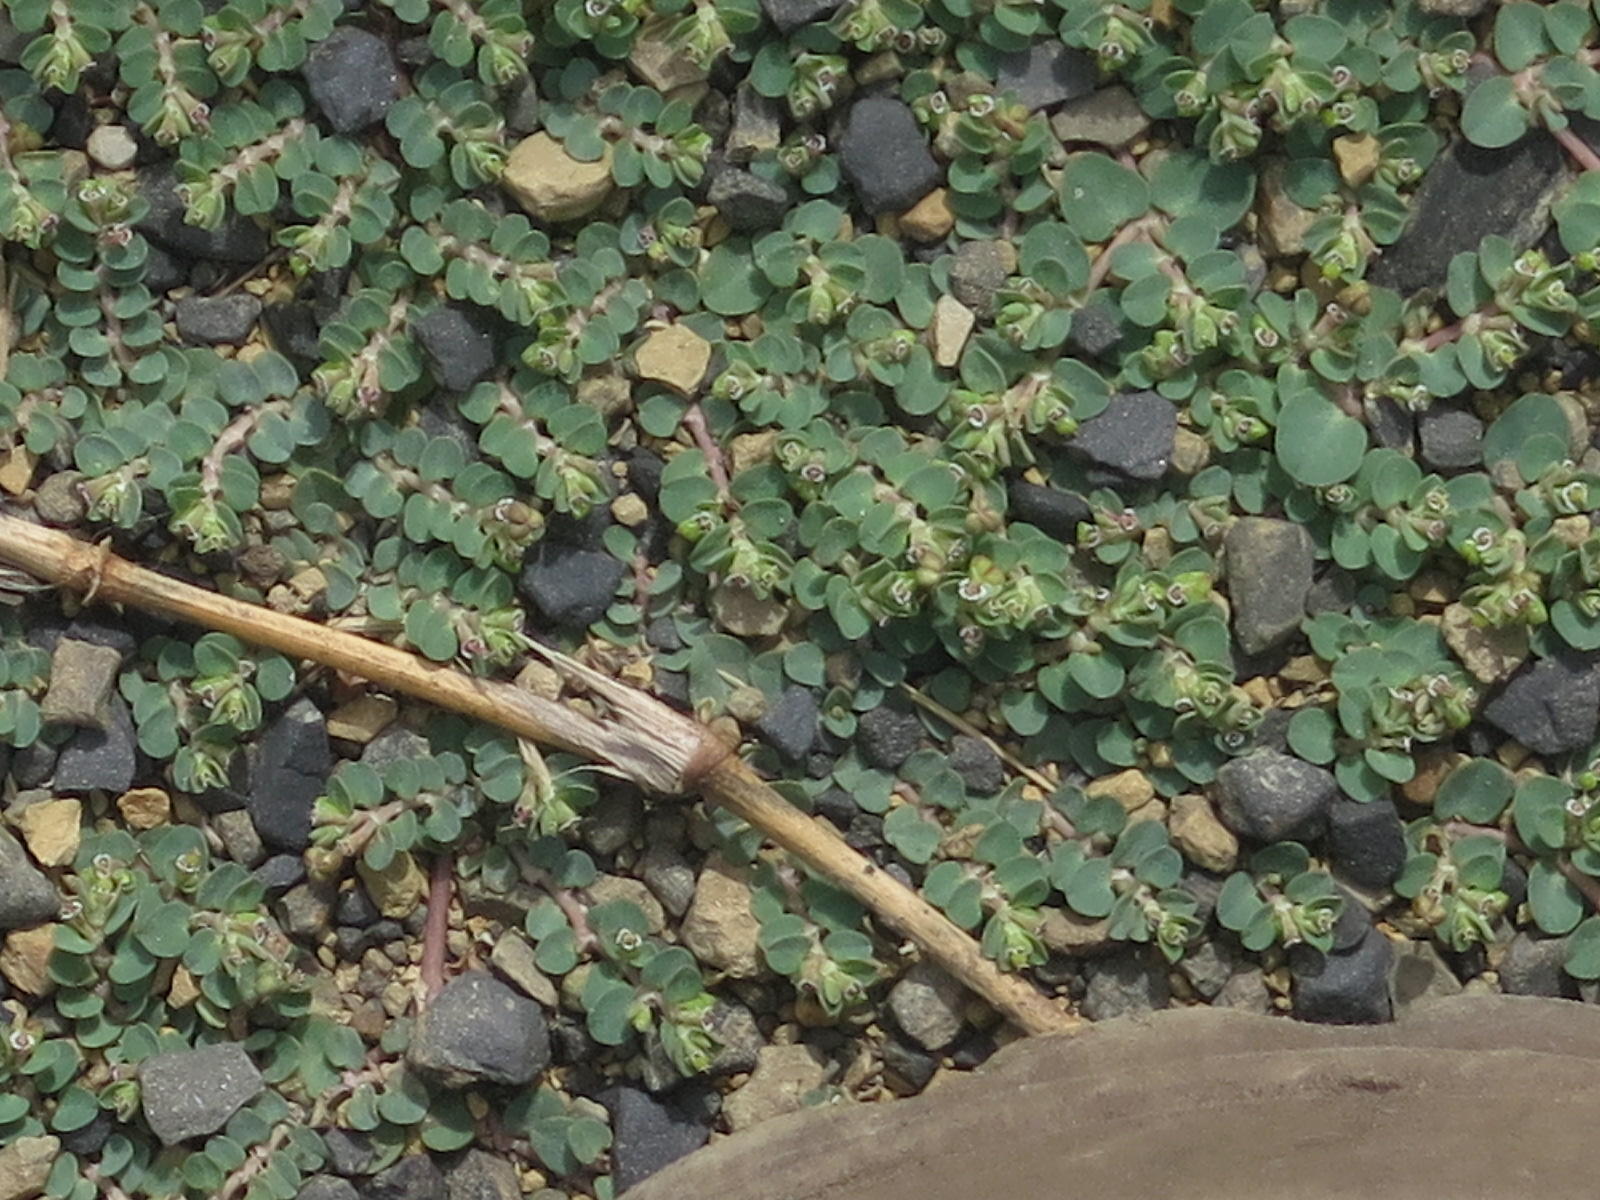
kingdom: Plantae
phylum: Tracheophyta
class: Magnoliopsida
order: Malpighiales
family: Euphorbiaceae
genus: Euphorbia
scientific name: Euphorbia serpens
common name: Matted sandmat
